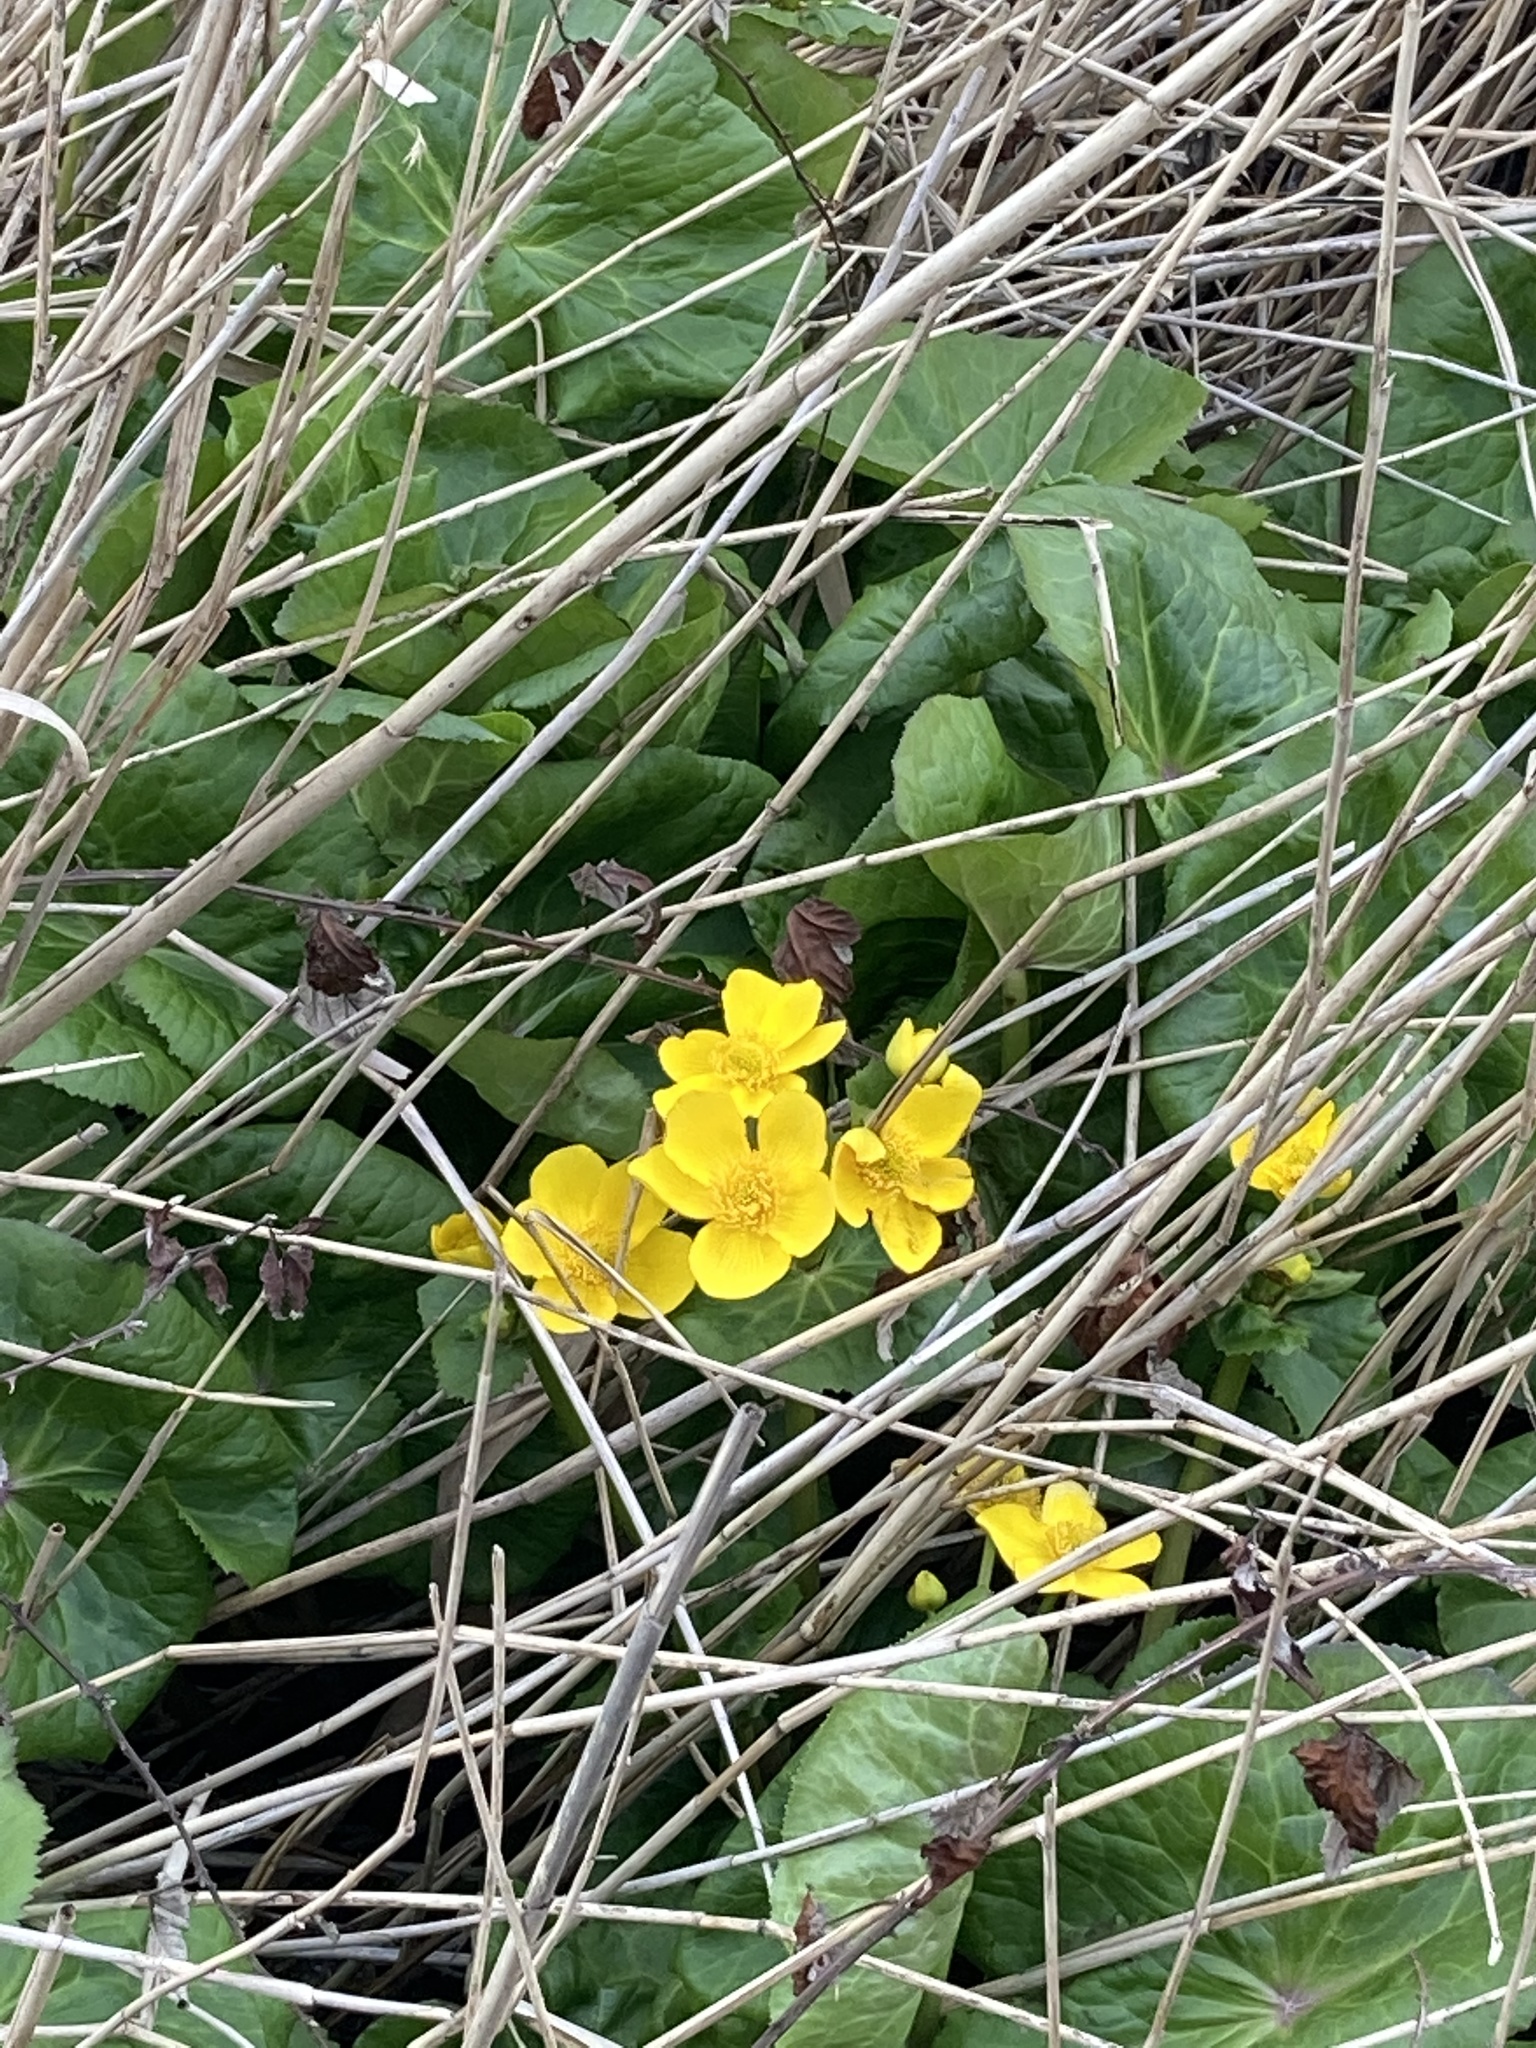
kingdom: Plantae
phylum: Tracheophyta
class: Magnoliopsida
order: Ranunculales
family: Ranunculaceae
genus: Caltha
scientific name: Caltha palustris
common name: Marsh marigold
